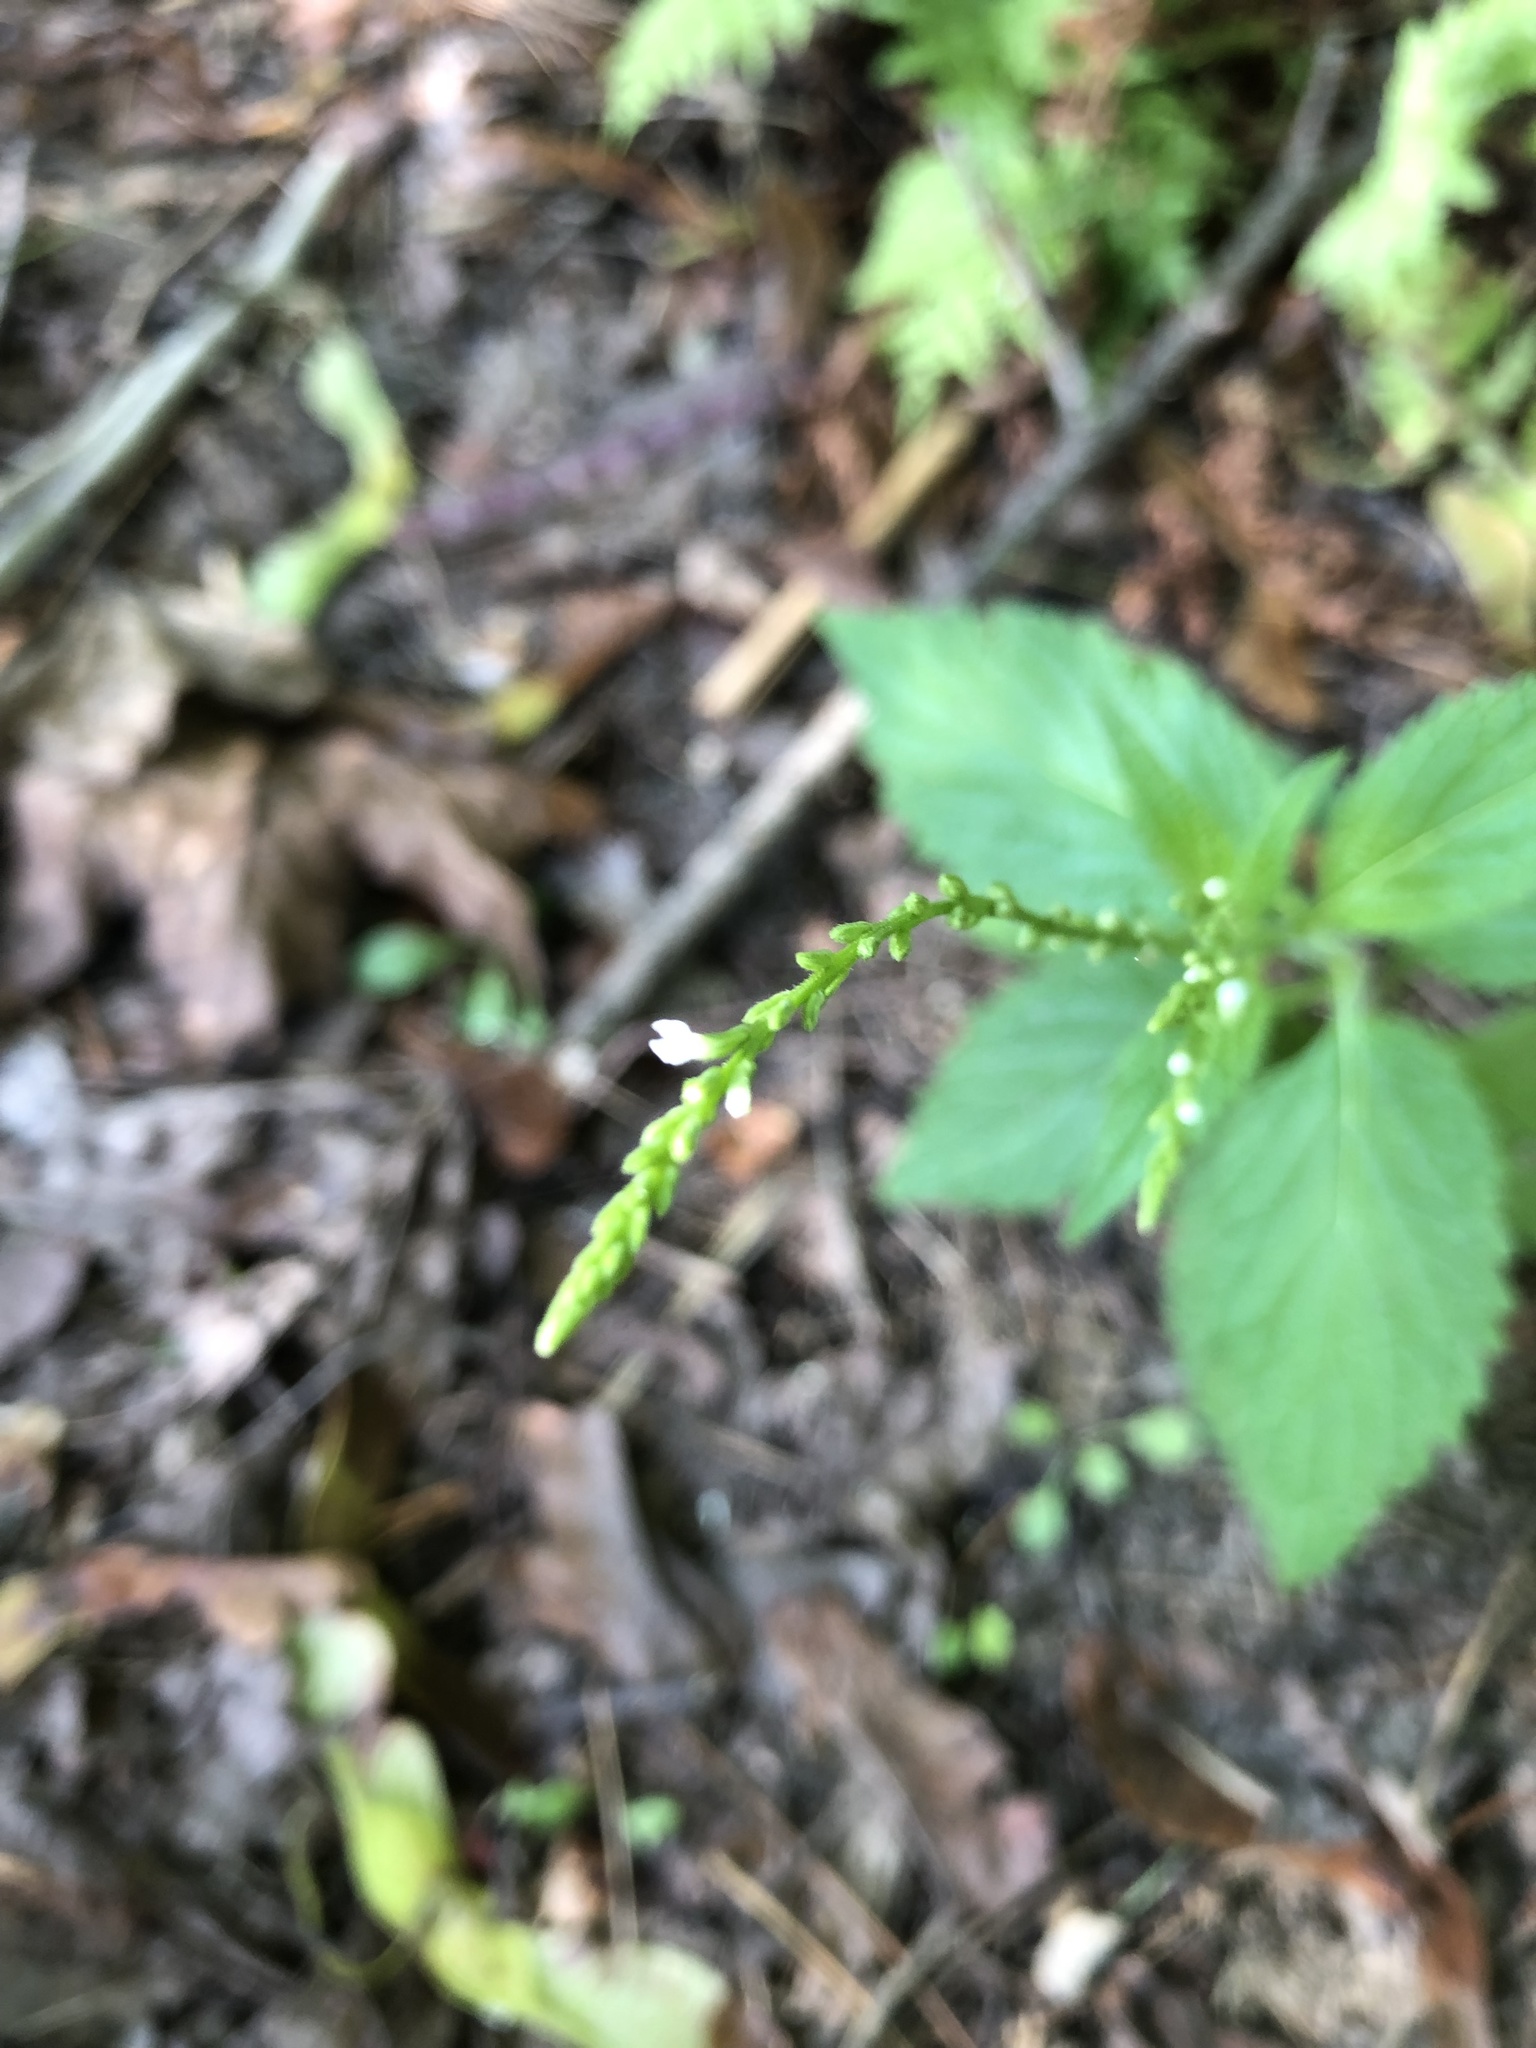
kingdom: Plantae
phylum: Tracheophyta
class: Magnoliopsida
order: Lamiales
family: Verbenaceae
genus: Verbena
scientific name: Verbena urticifolia
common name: Nettle-leaved vervain
